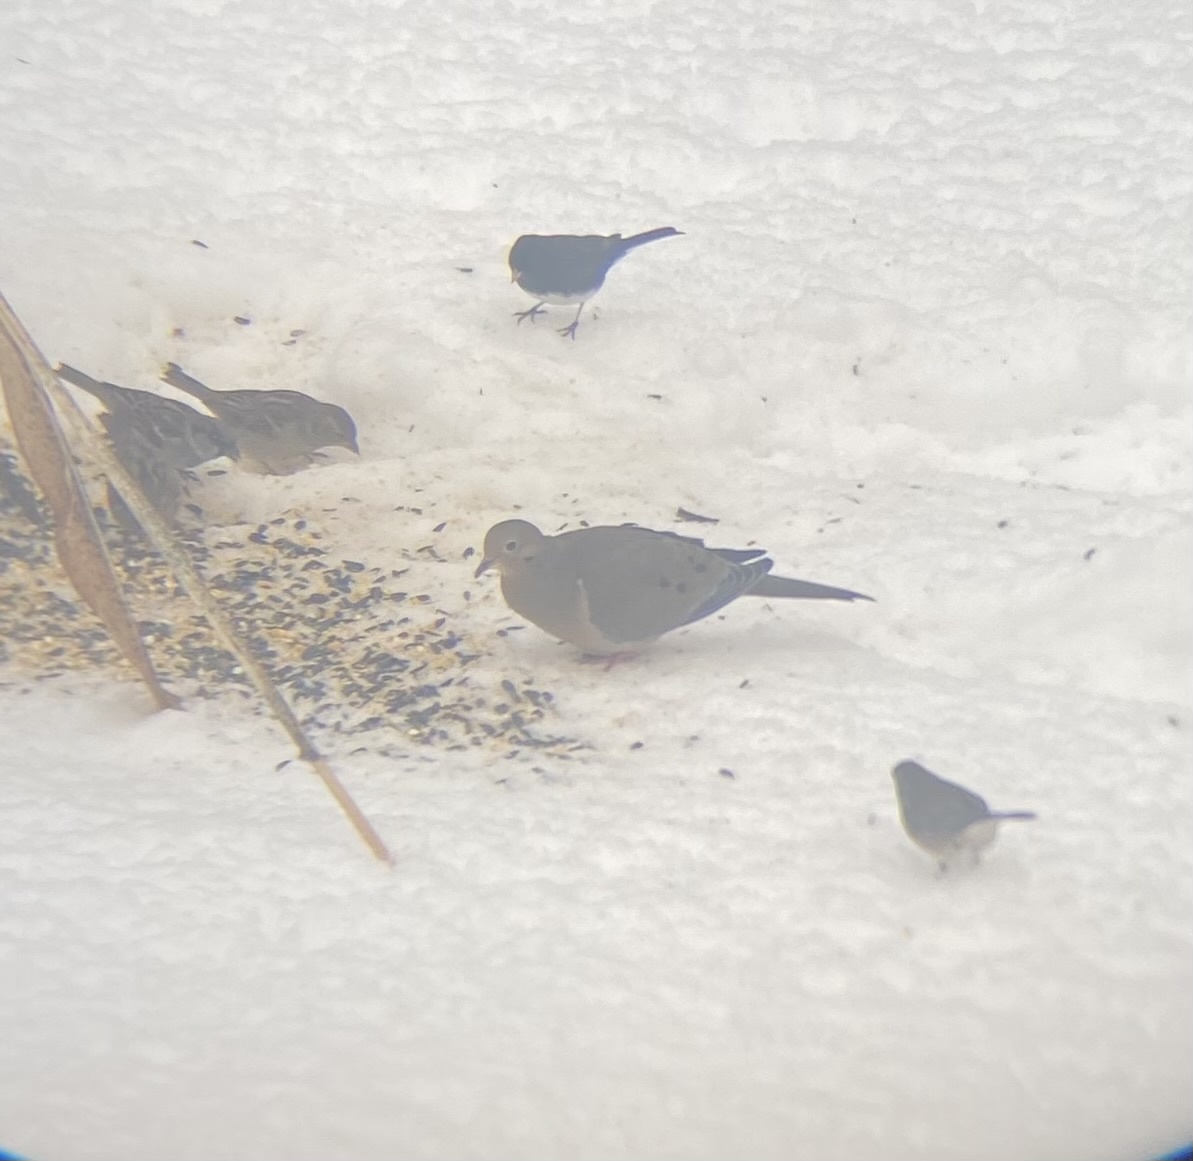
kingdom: Animalia
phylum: Chordata
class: Aves
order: Columbiformes
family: Columbidae
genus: Zenaida
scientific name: Zenaida macroura
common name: Mourning dove
